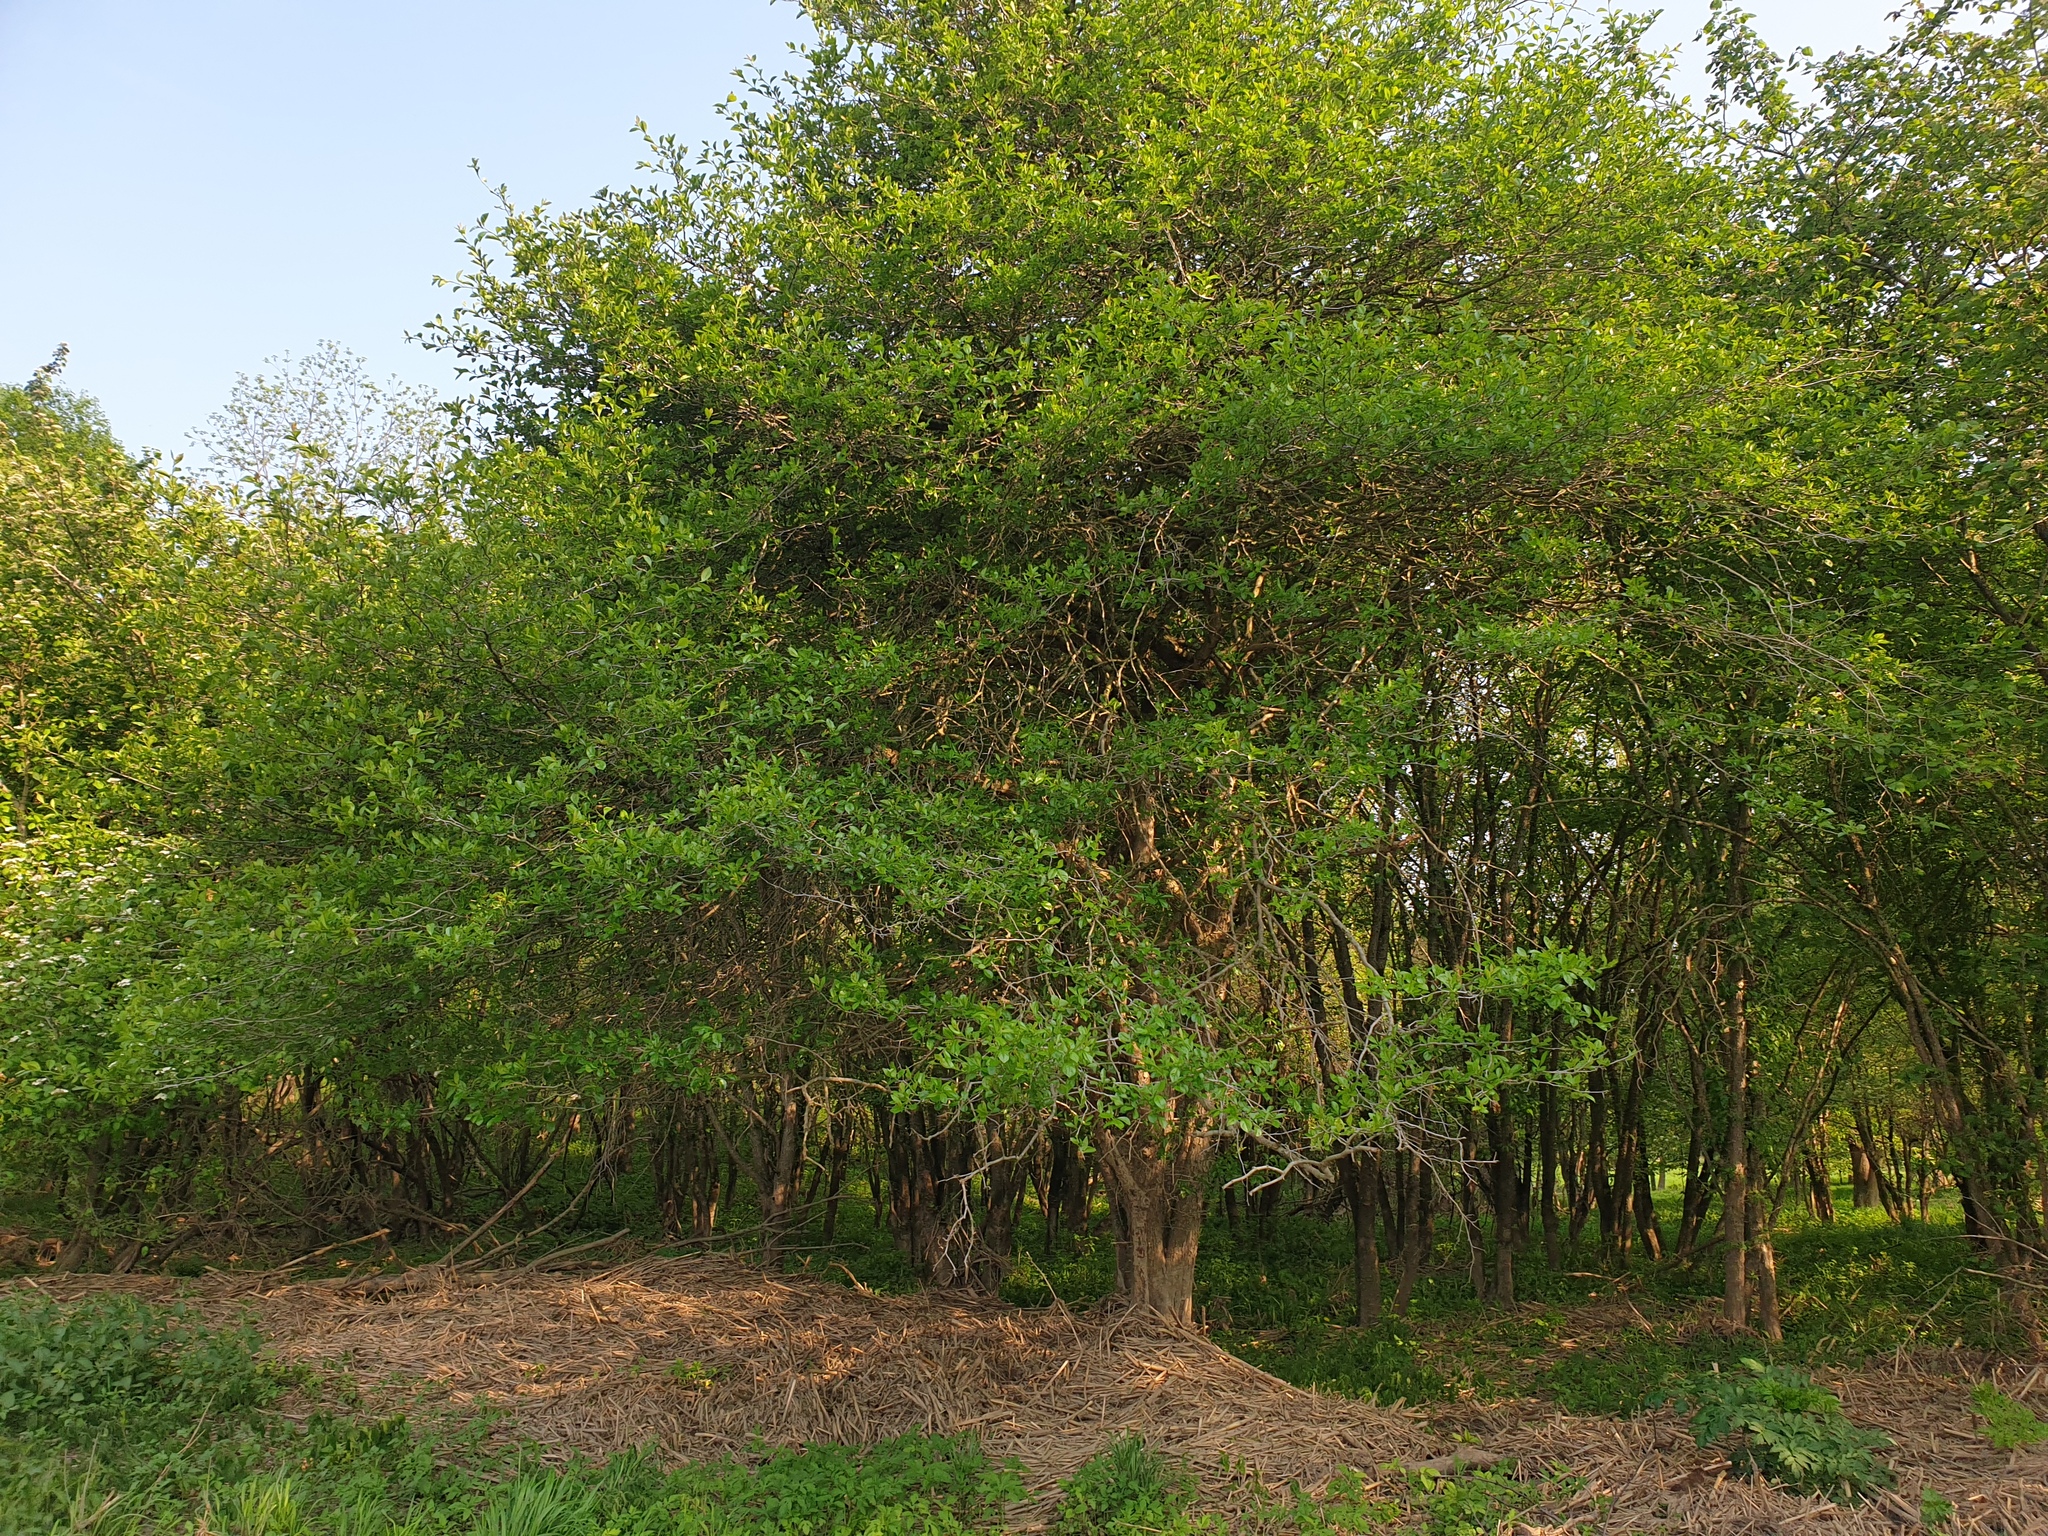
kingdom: Plantae
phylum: Tracheophyta
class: Magnoliopsida
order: Rosales
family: Rosaceae
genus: Crataegus
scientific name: Crataegus crus-galli
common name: Cockspurthorn
